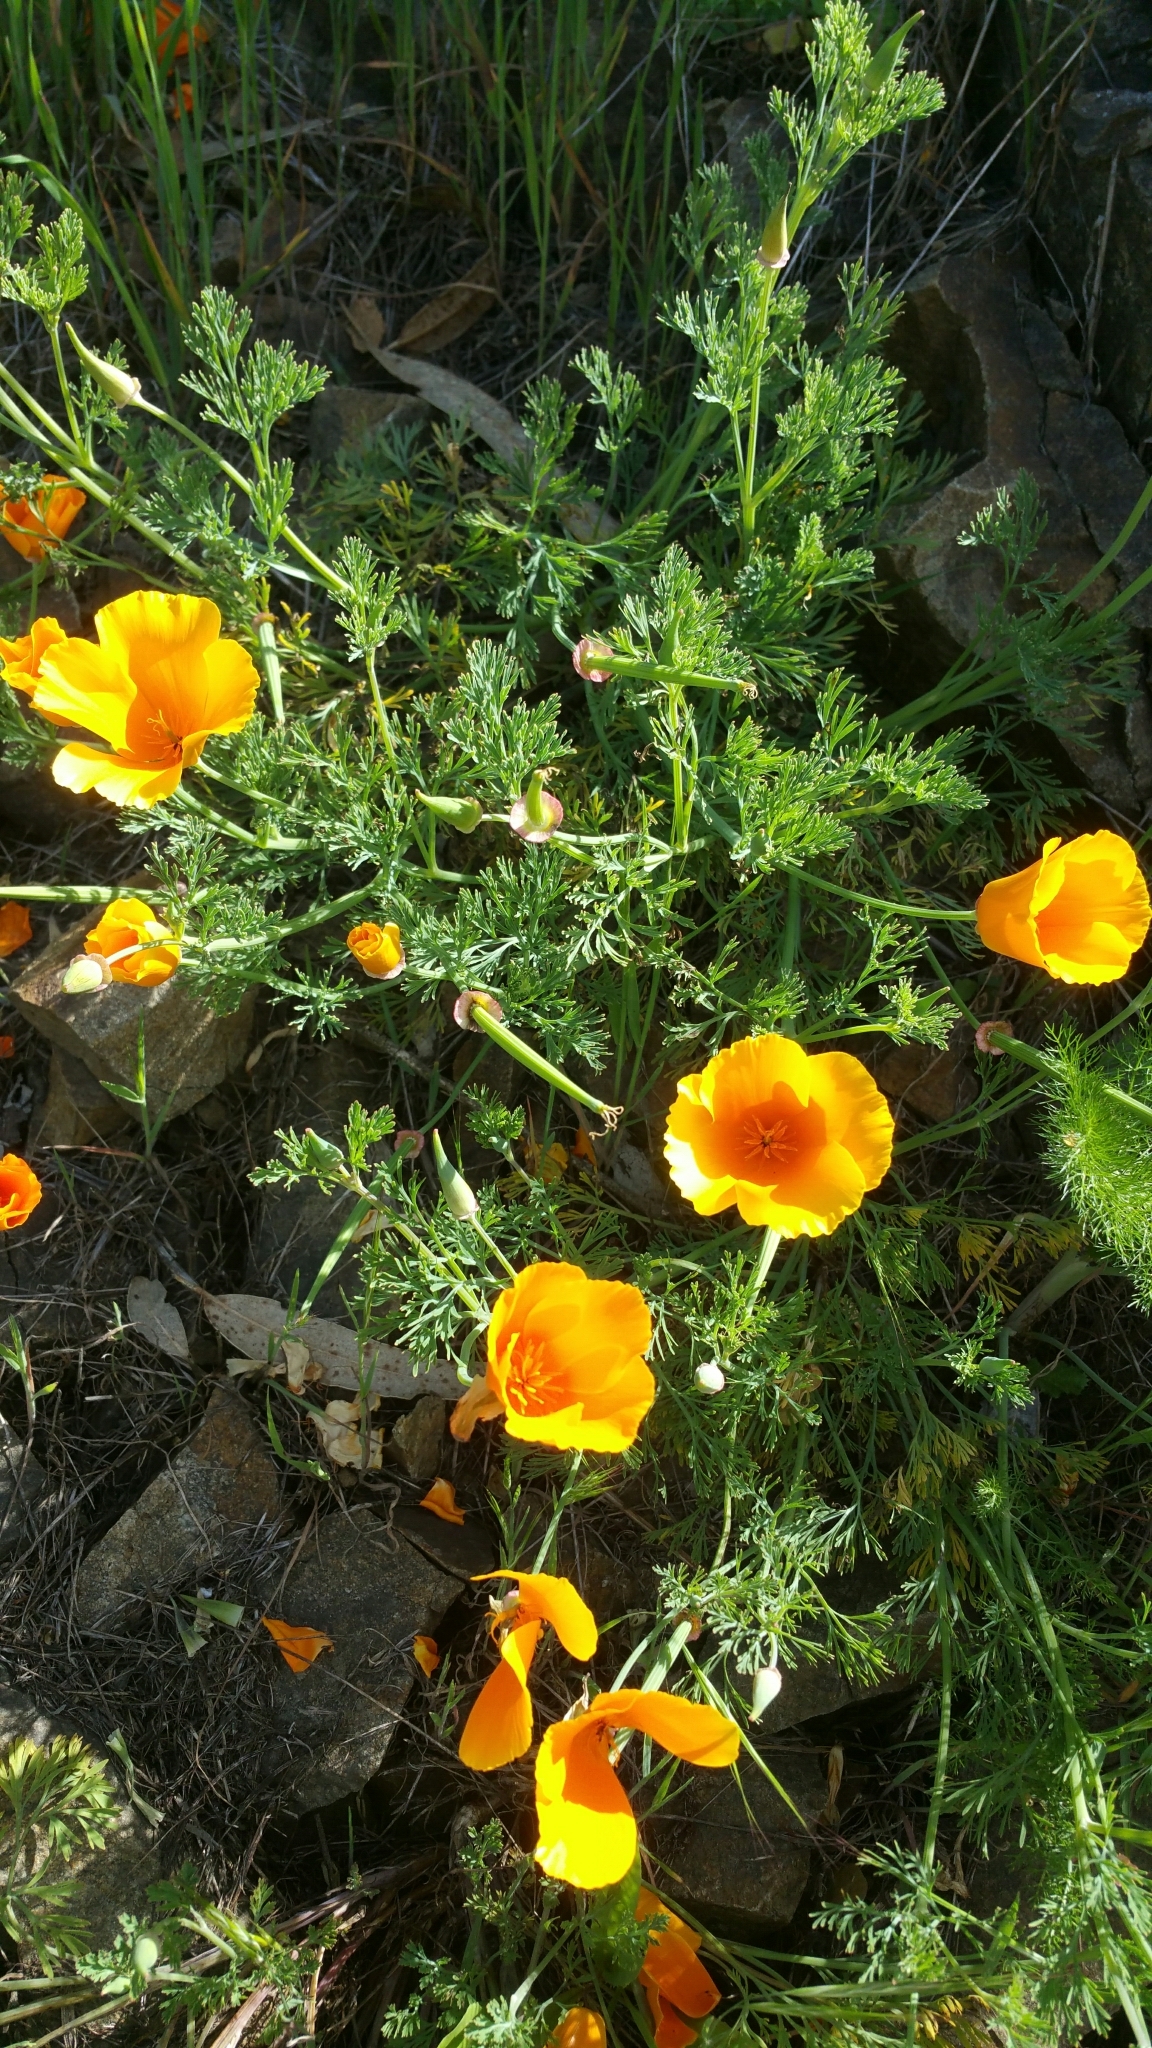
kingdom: Plantae
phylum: Tracheophyta
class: Magnoliopsida
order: Ranunculales
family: Papaveraceae
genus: Eschscholzia
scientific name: Eschscholzia californica
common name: California poppy
